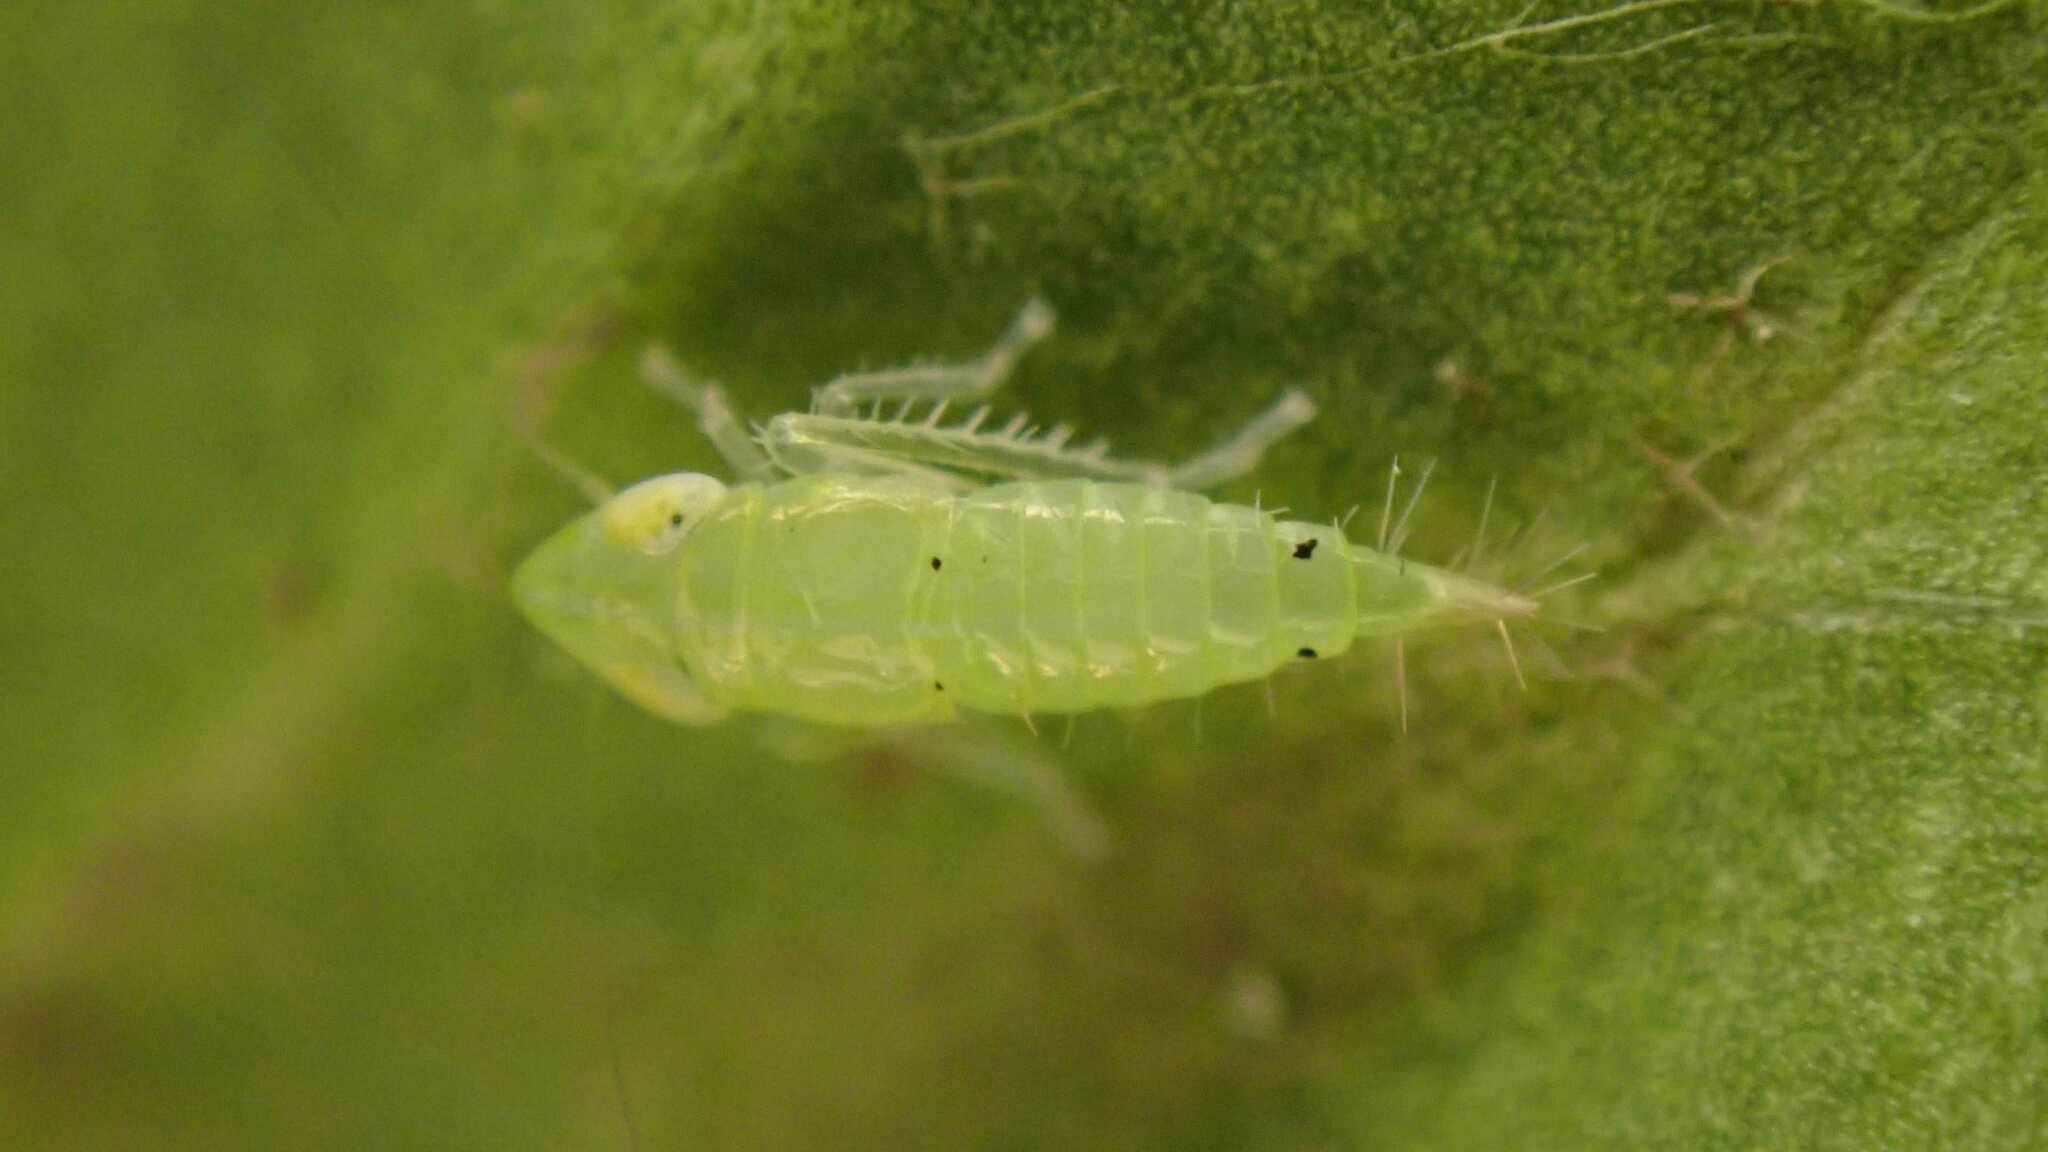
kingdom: Animalia
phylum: Arthropoda
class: Insecta
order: Hemiptera
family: Cicadellidae
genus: Synophropsis
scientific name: Synophropsis lauri
